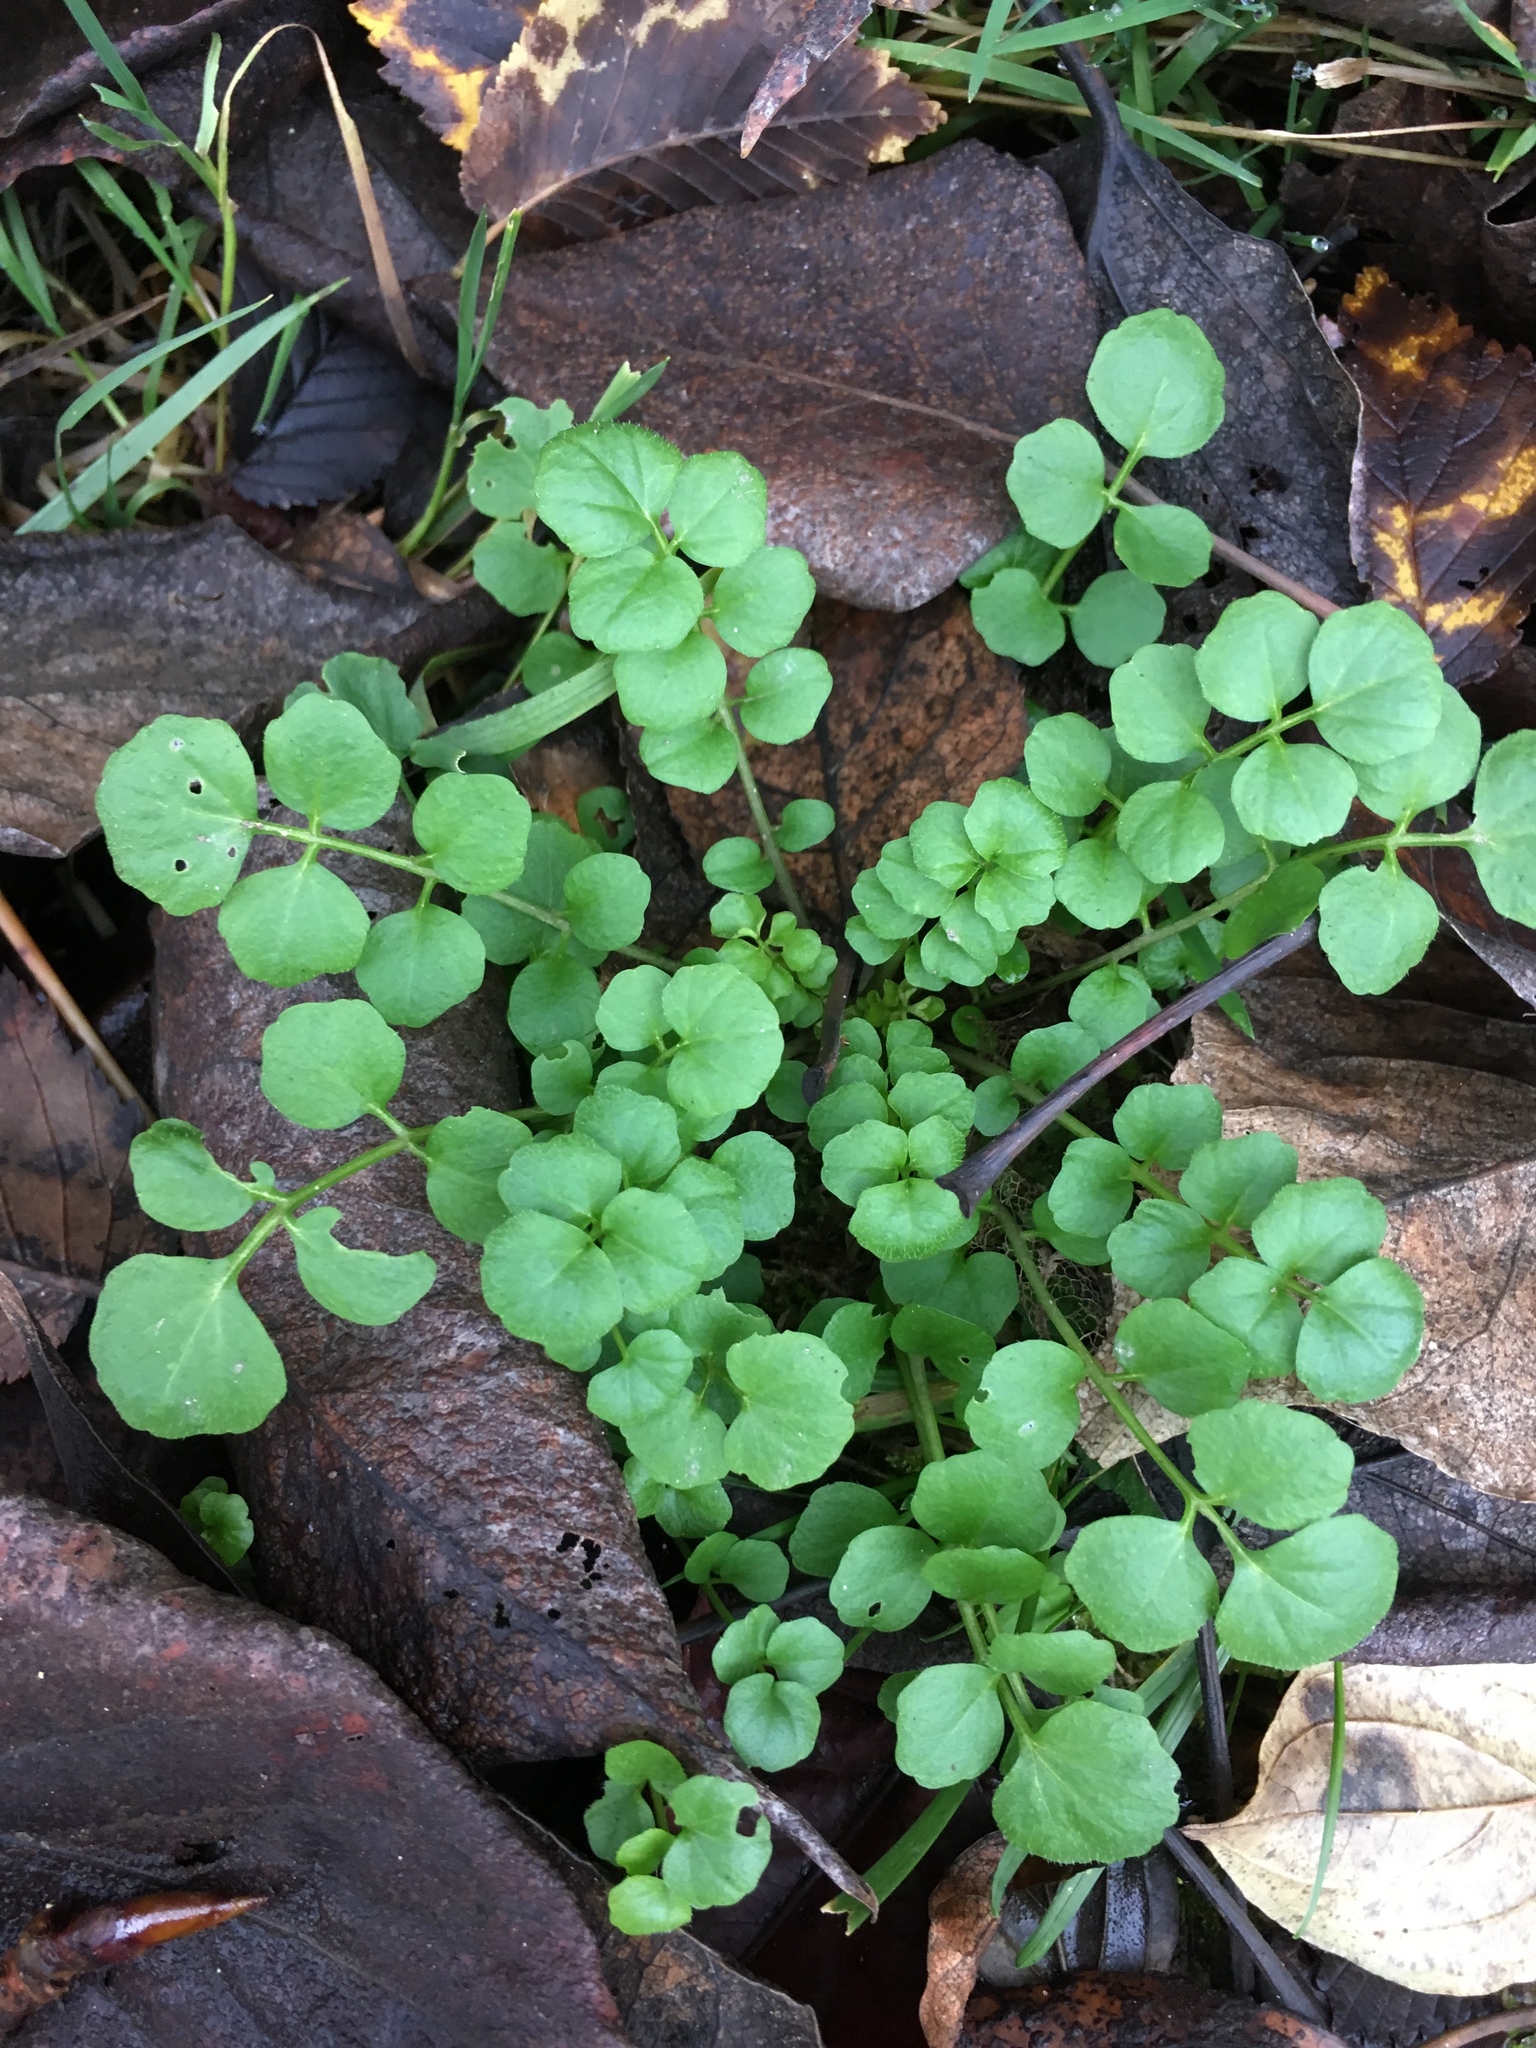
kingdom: Plantae
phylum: Tracheophyta
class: Magnoliopsida
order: Brassicales
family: Brassicaceae
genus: Cardamine
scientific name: Cardamine hirsuta
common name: Hairy bittercress
